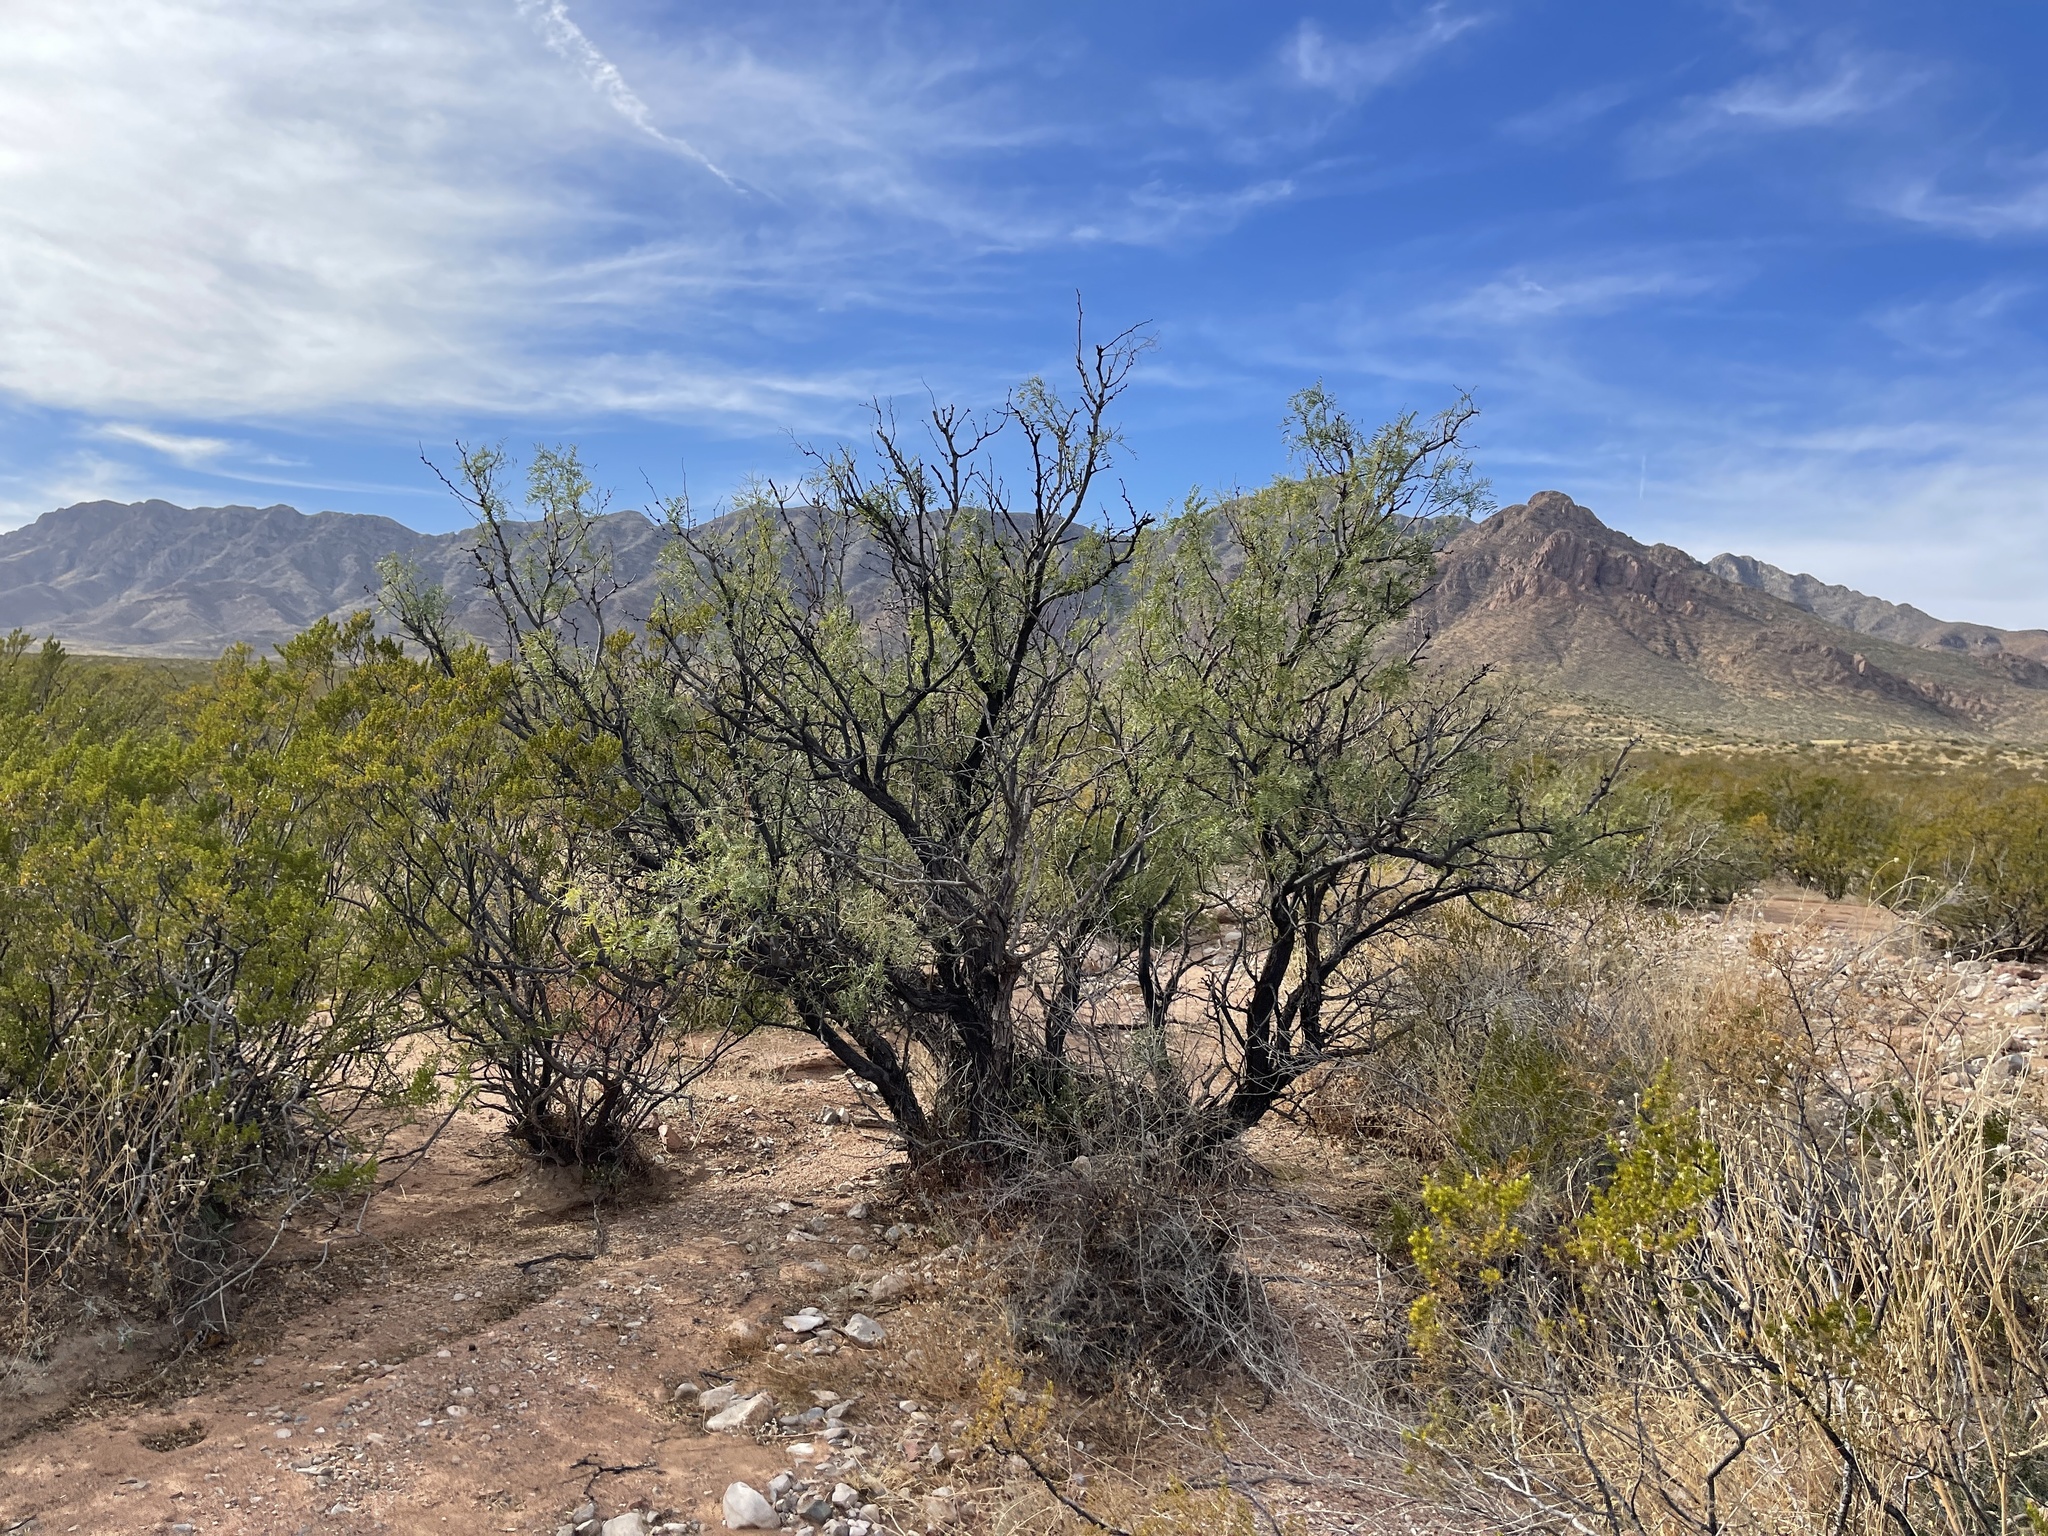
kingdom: Plantae
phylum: Tracheophyta
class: Magnoliopsida
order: Fabales
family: Fabaceae
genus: Prosopis
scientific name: Prosopis glandulosa
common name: Honey mesquite
